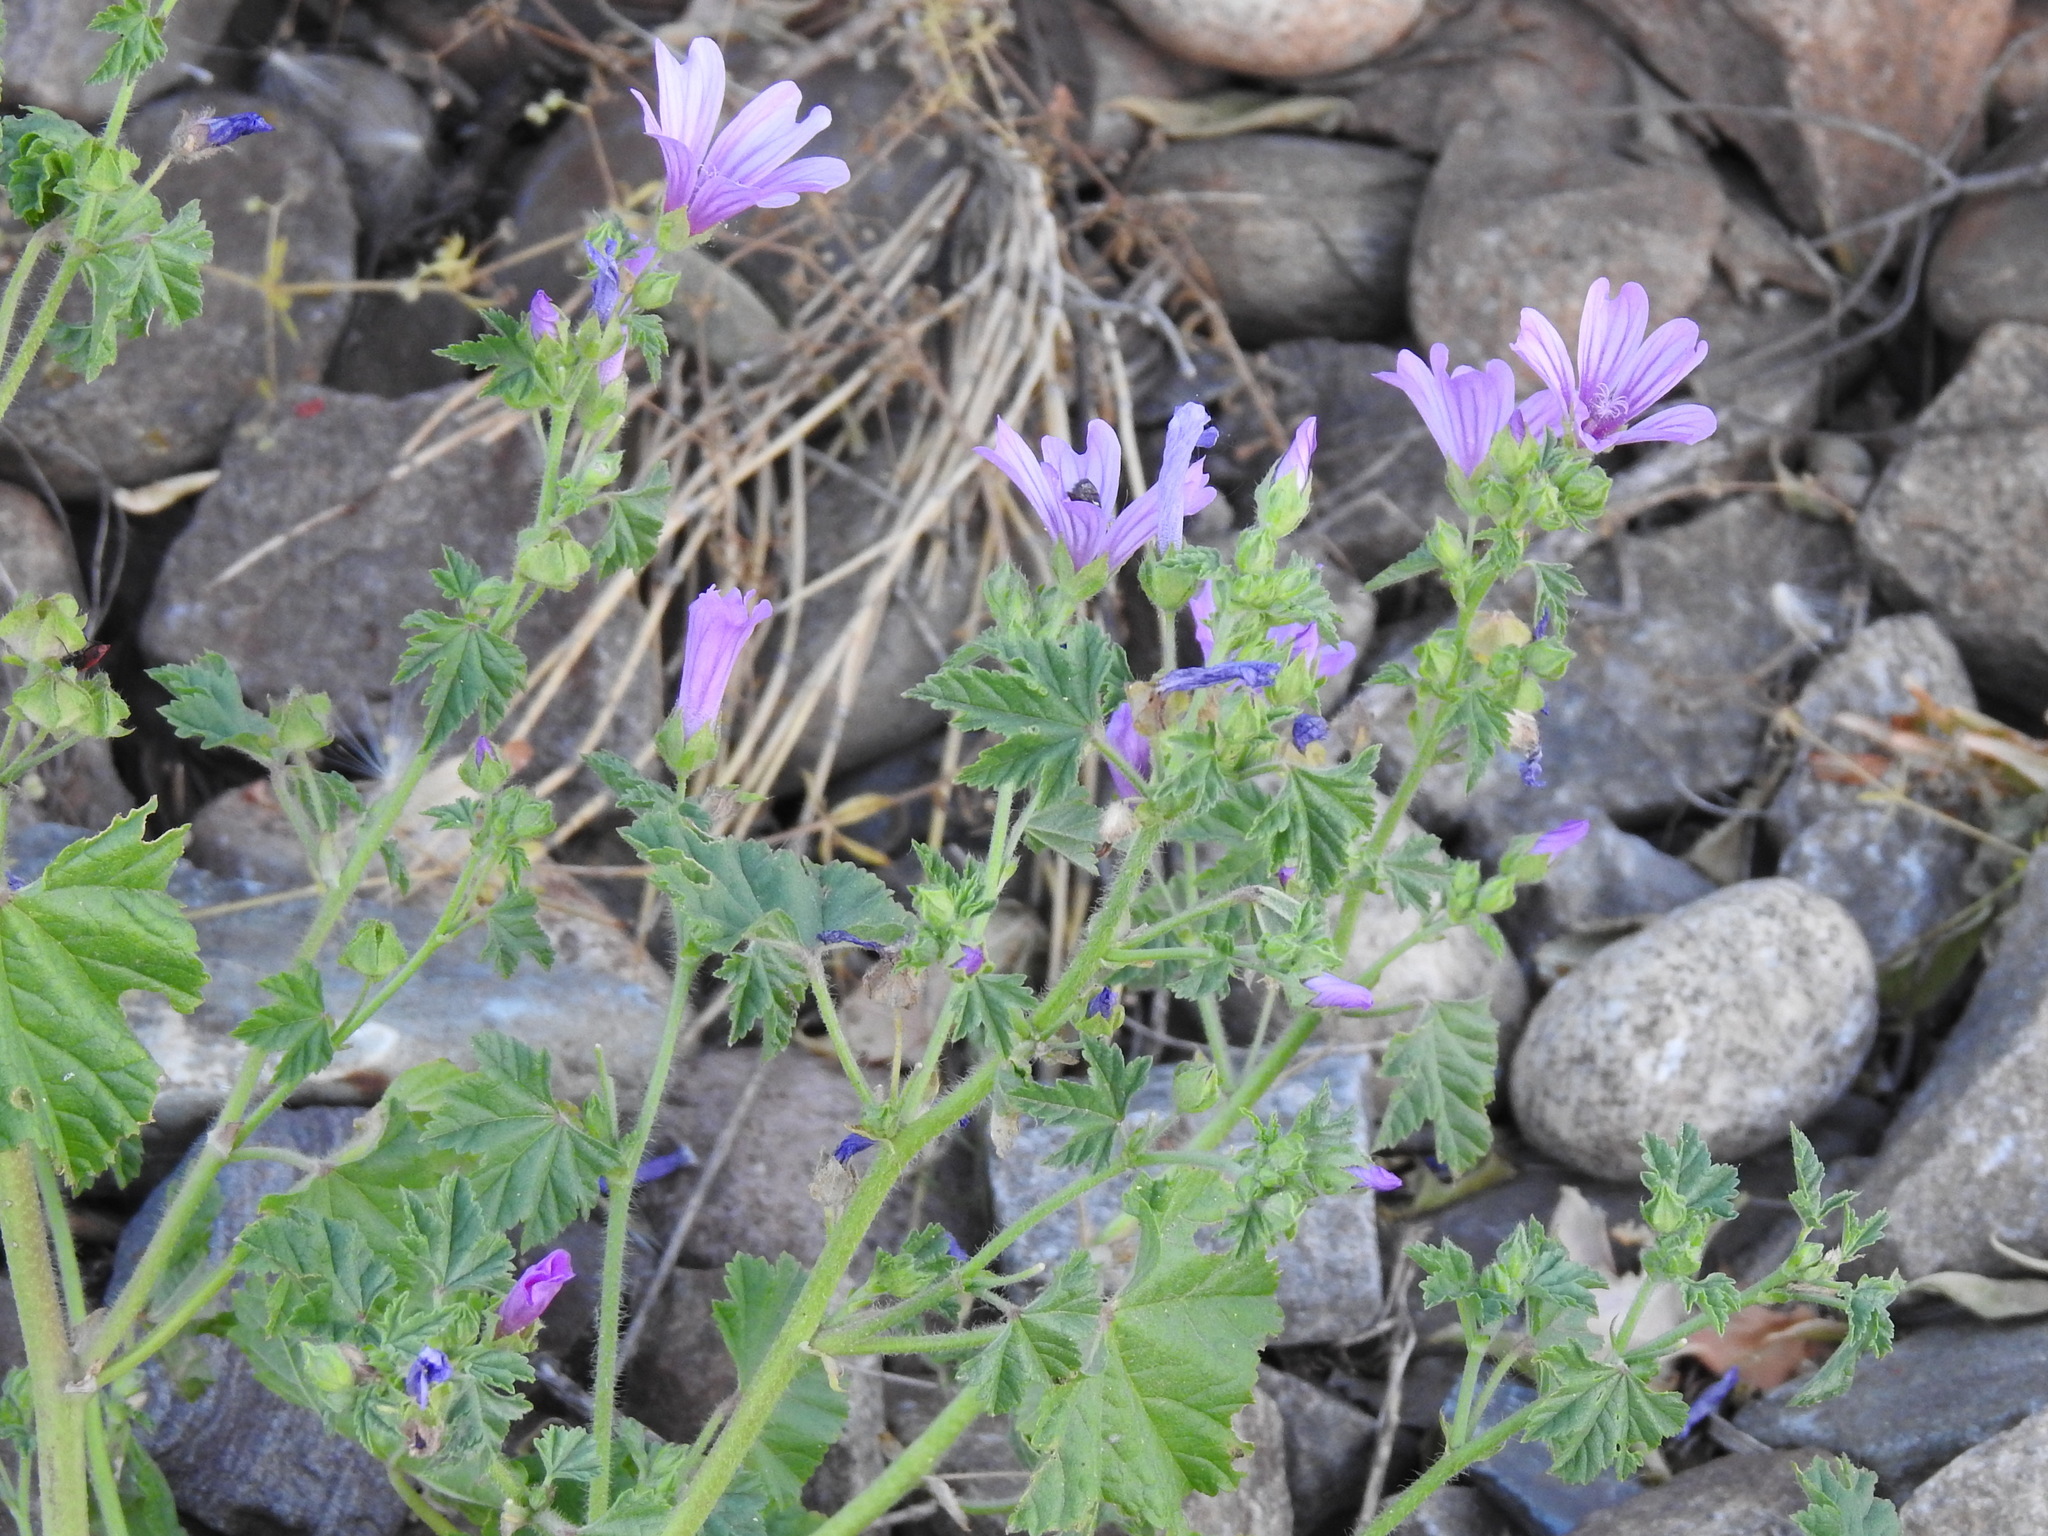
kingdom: Plantae
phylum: Tracheophyta
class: Magnoliopsida
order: Malvales
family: Malvaceae
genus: Malva
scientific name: Malva sylvestris
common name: Common mallow
